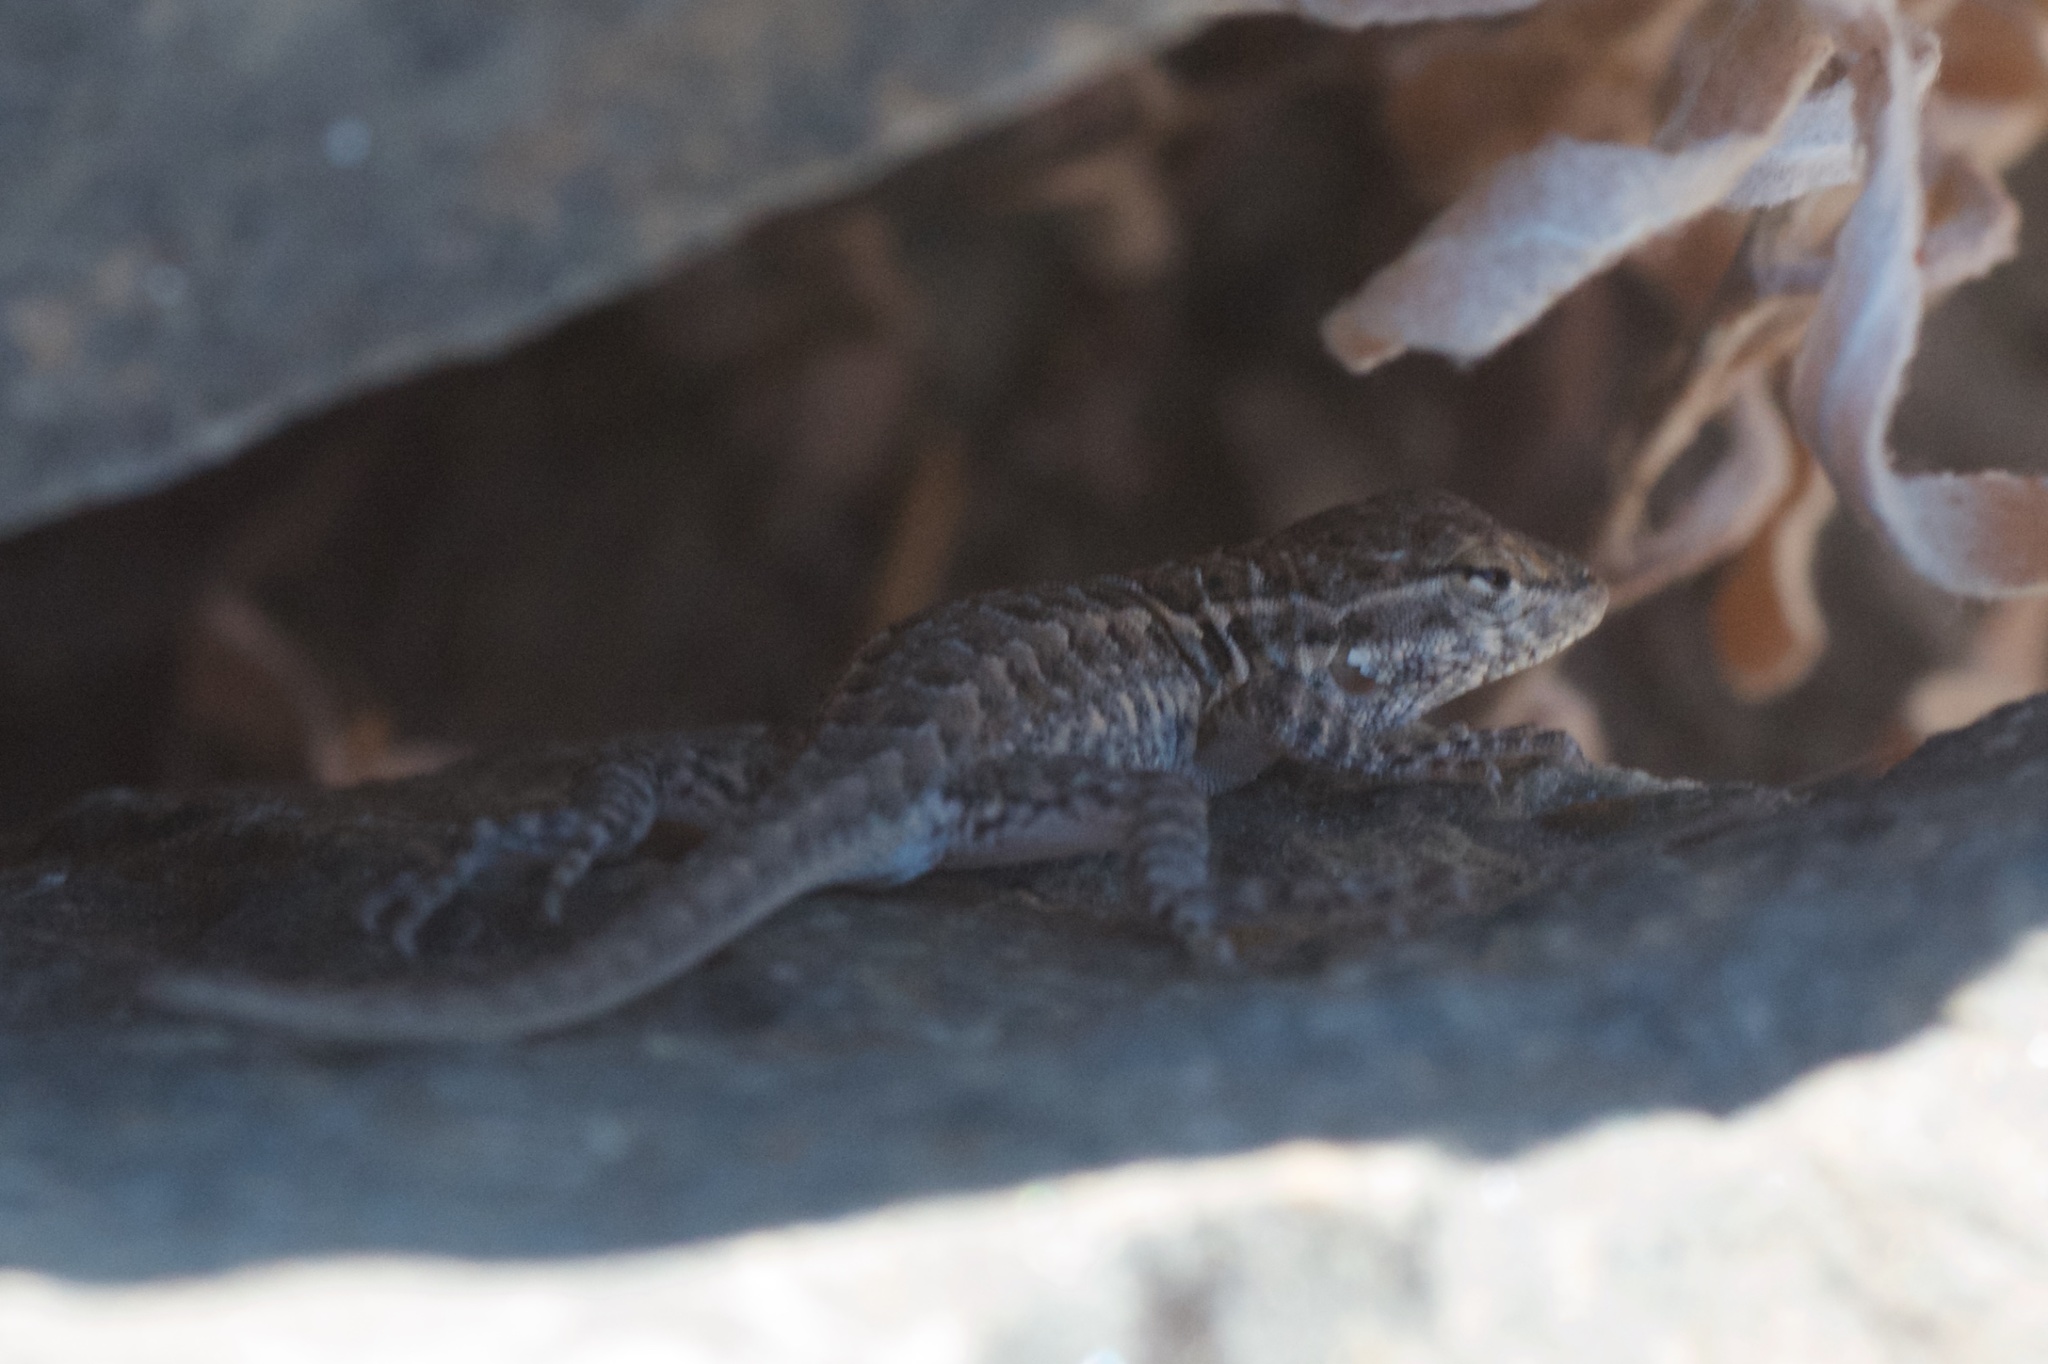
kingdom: Animalia
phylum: Chordata
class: Squamata
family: Phrynosomatidae
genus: Uta
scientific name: Uta stansburiana
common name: Side-blotched lizard
